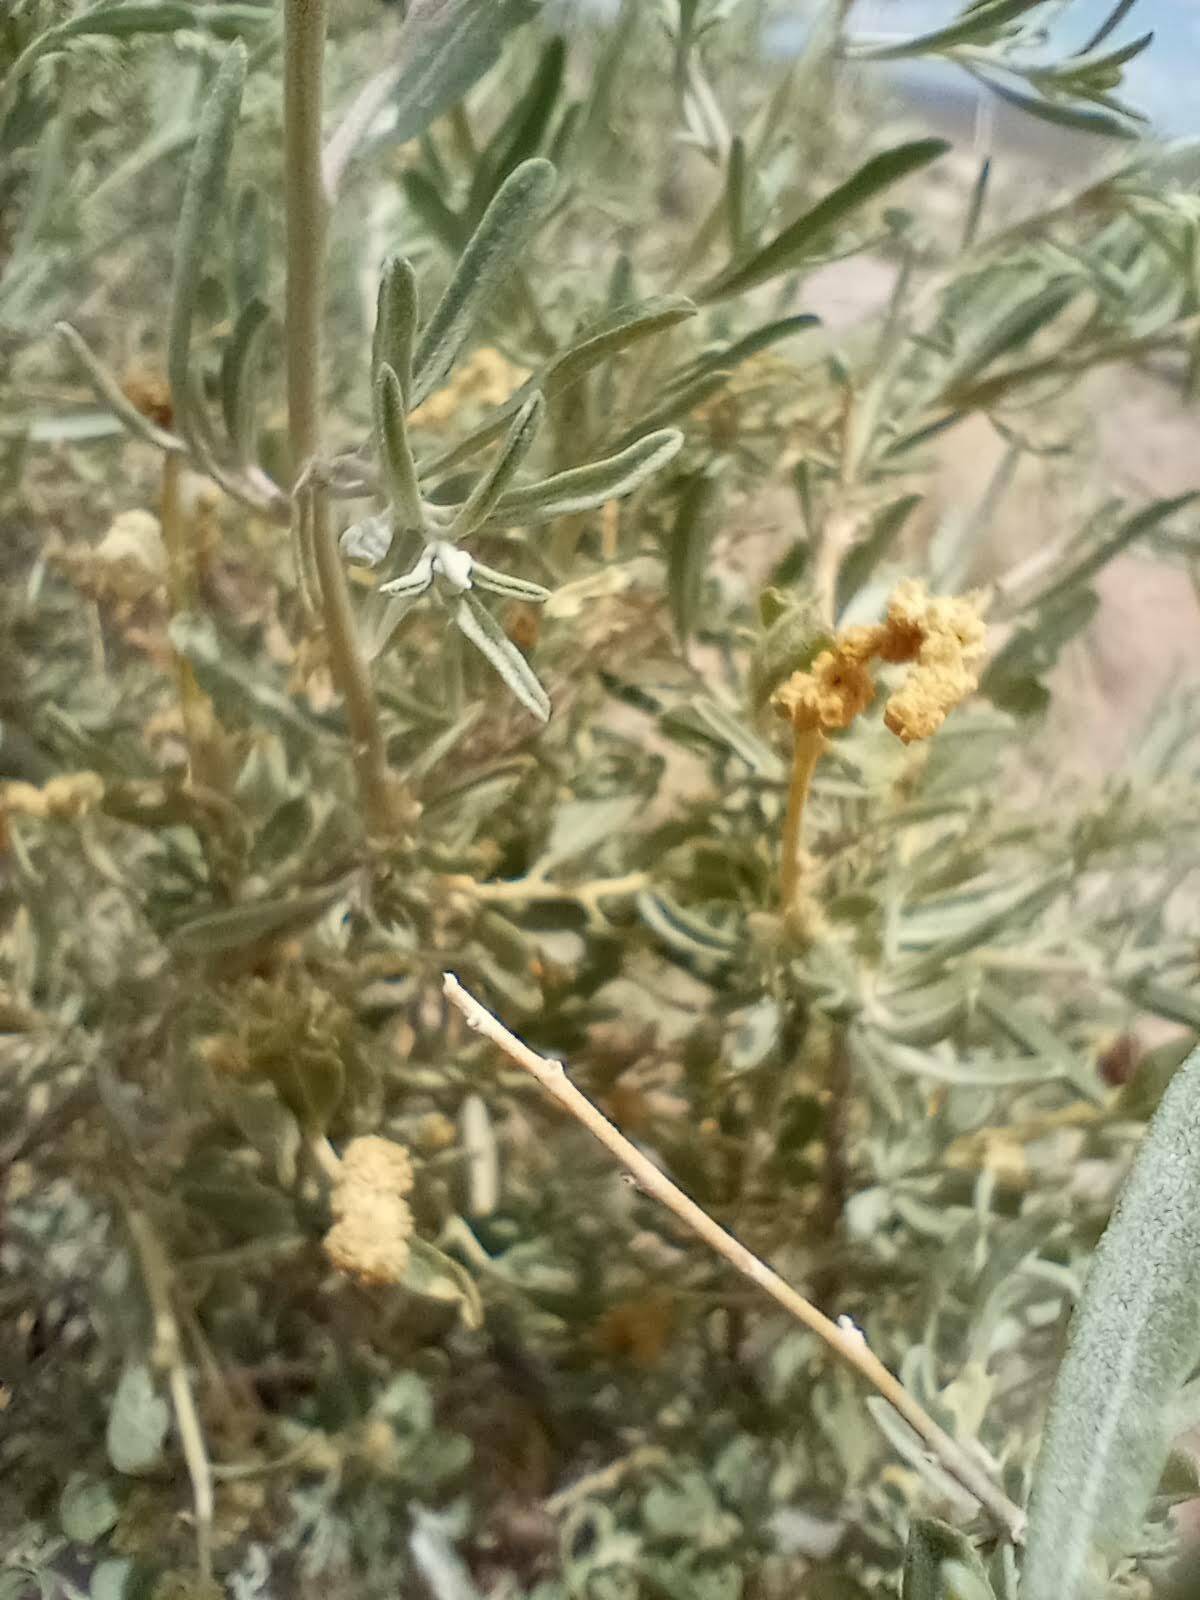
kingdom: Plantae
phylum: Tracheophyta
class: Magnoliopsida
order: Caryophyllales
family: Amaranthaceae
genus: Atriplex
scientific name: Atriplex canescens
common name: Four-wing saltbush
